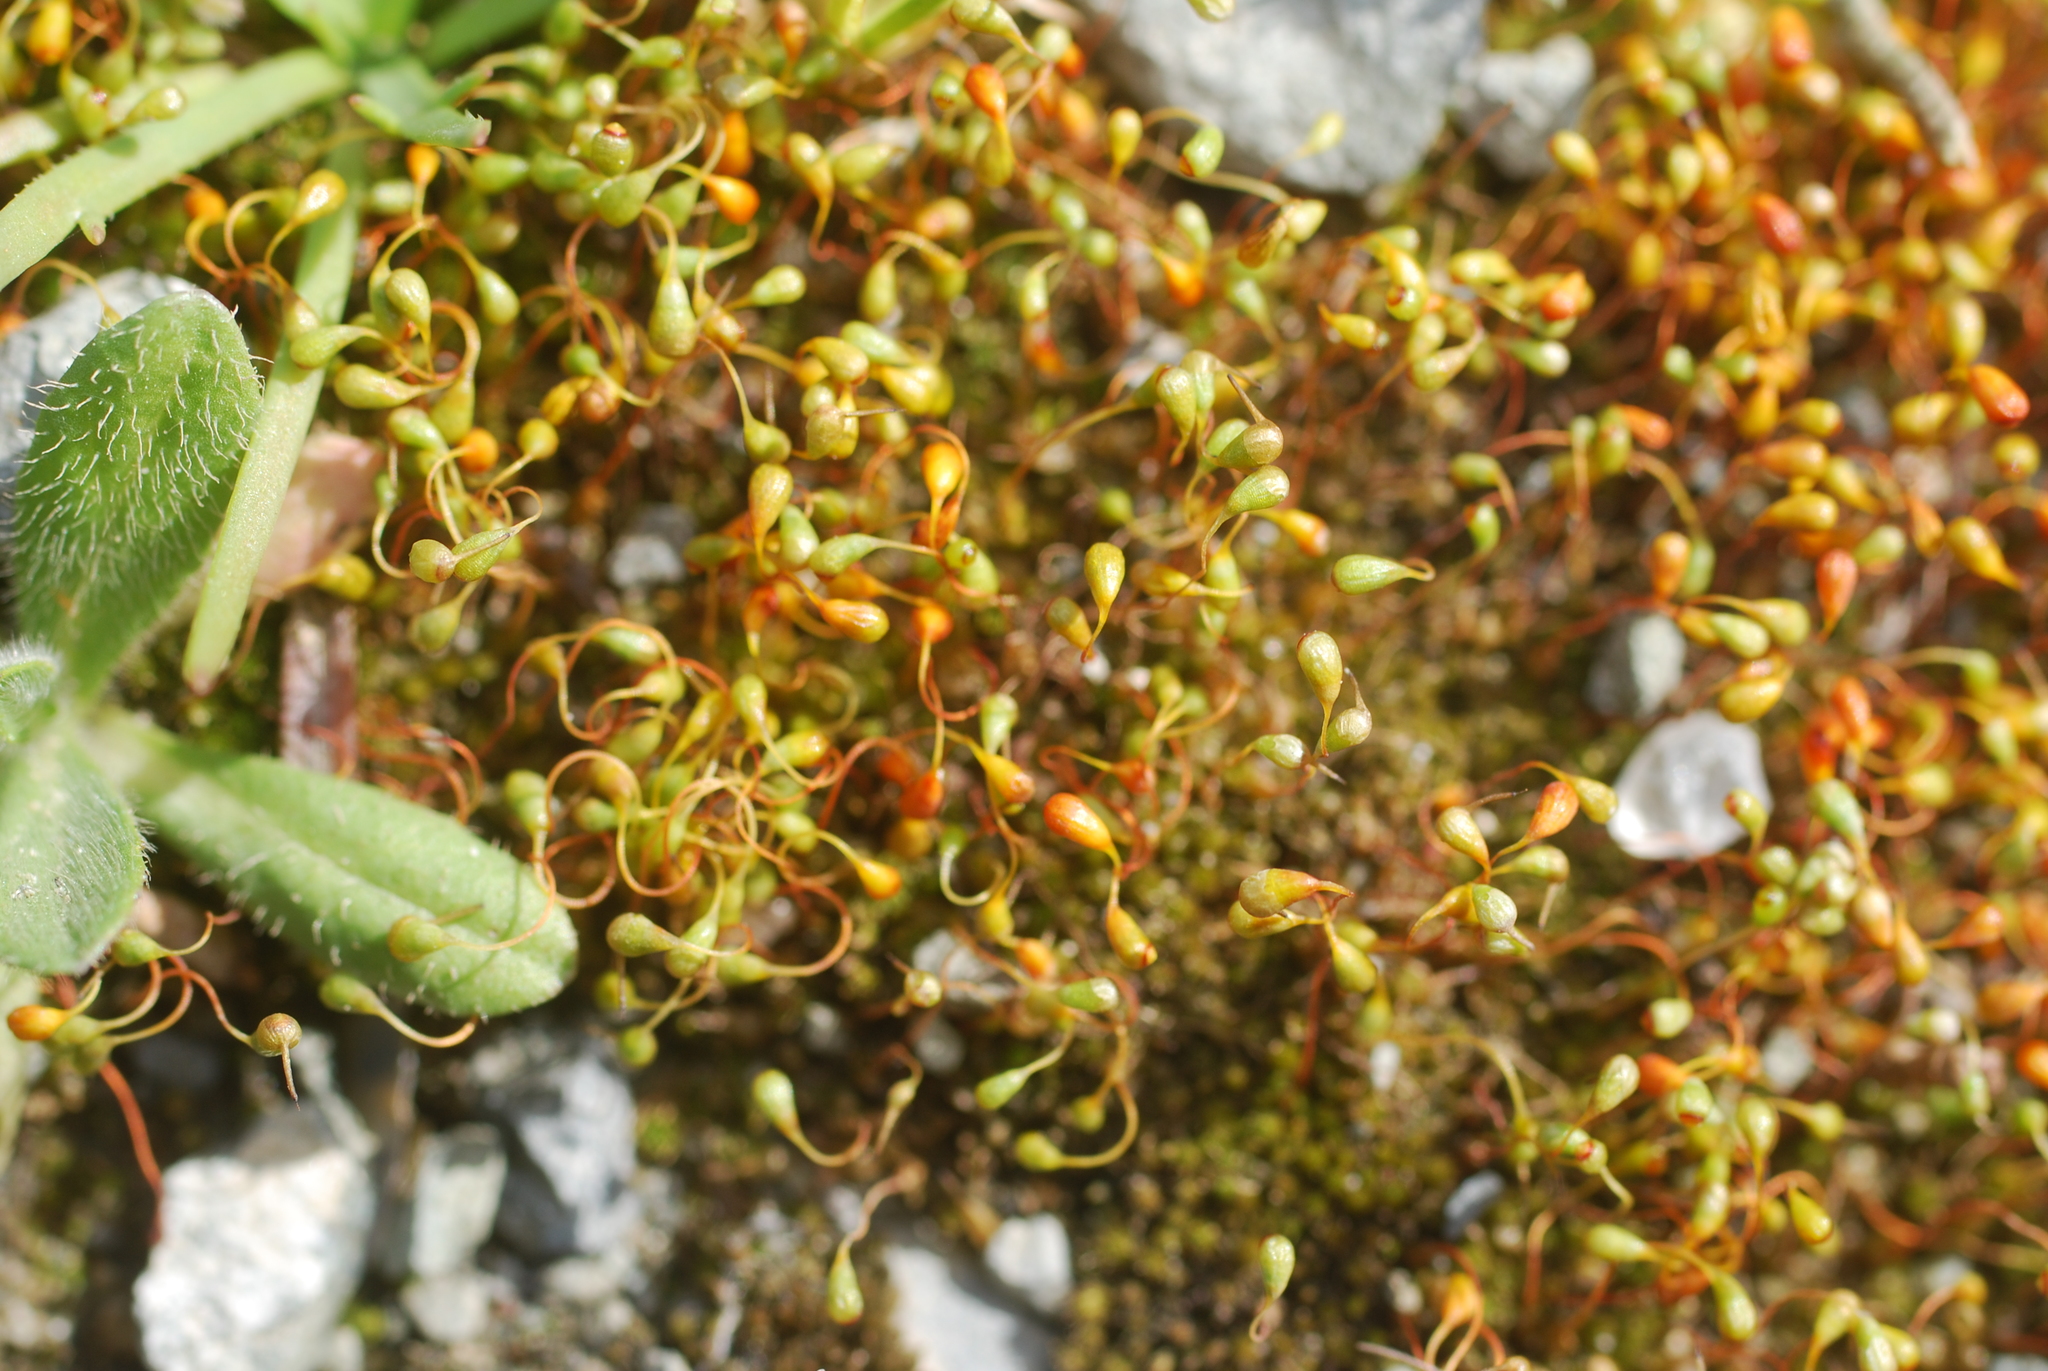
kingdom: Plantae
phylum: Bryophyta
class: Bryopsida
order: Funariales
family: Funariaceae
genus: Funaria
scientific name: Funaria hygrometrica
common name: Common cord moss
